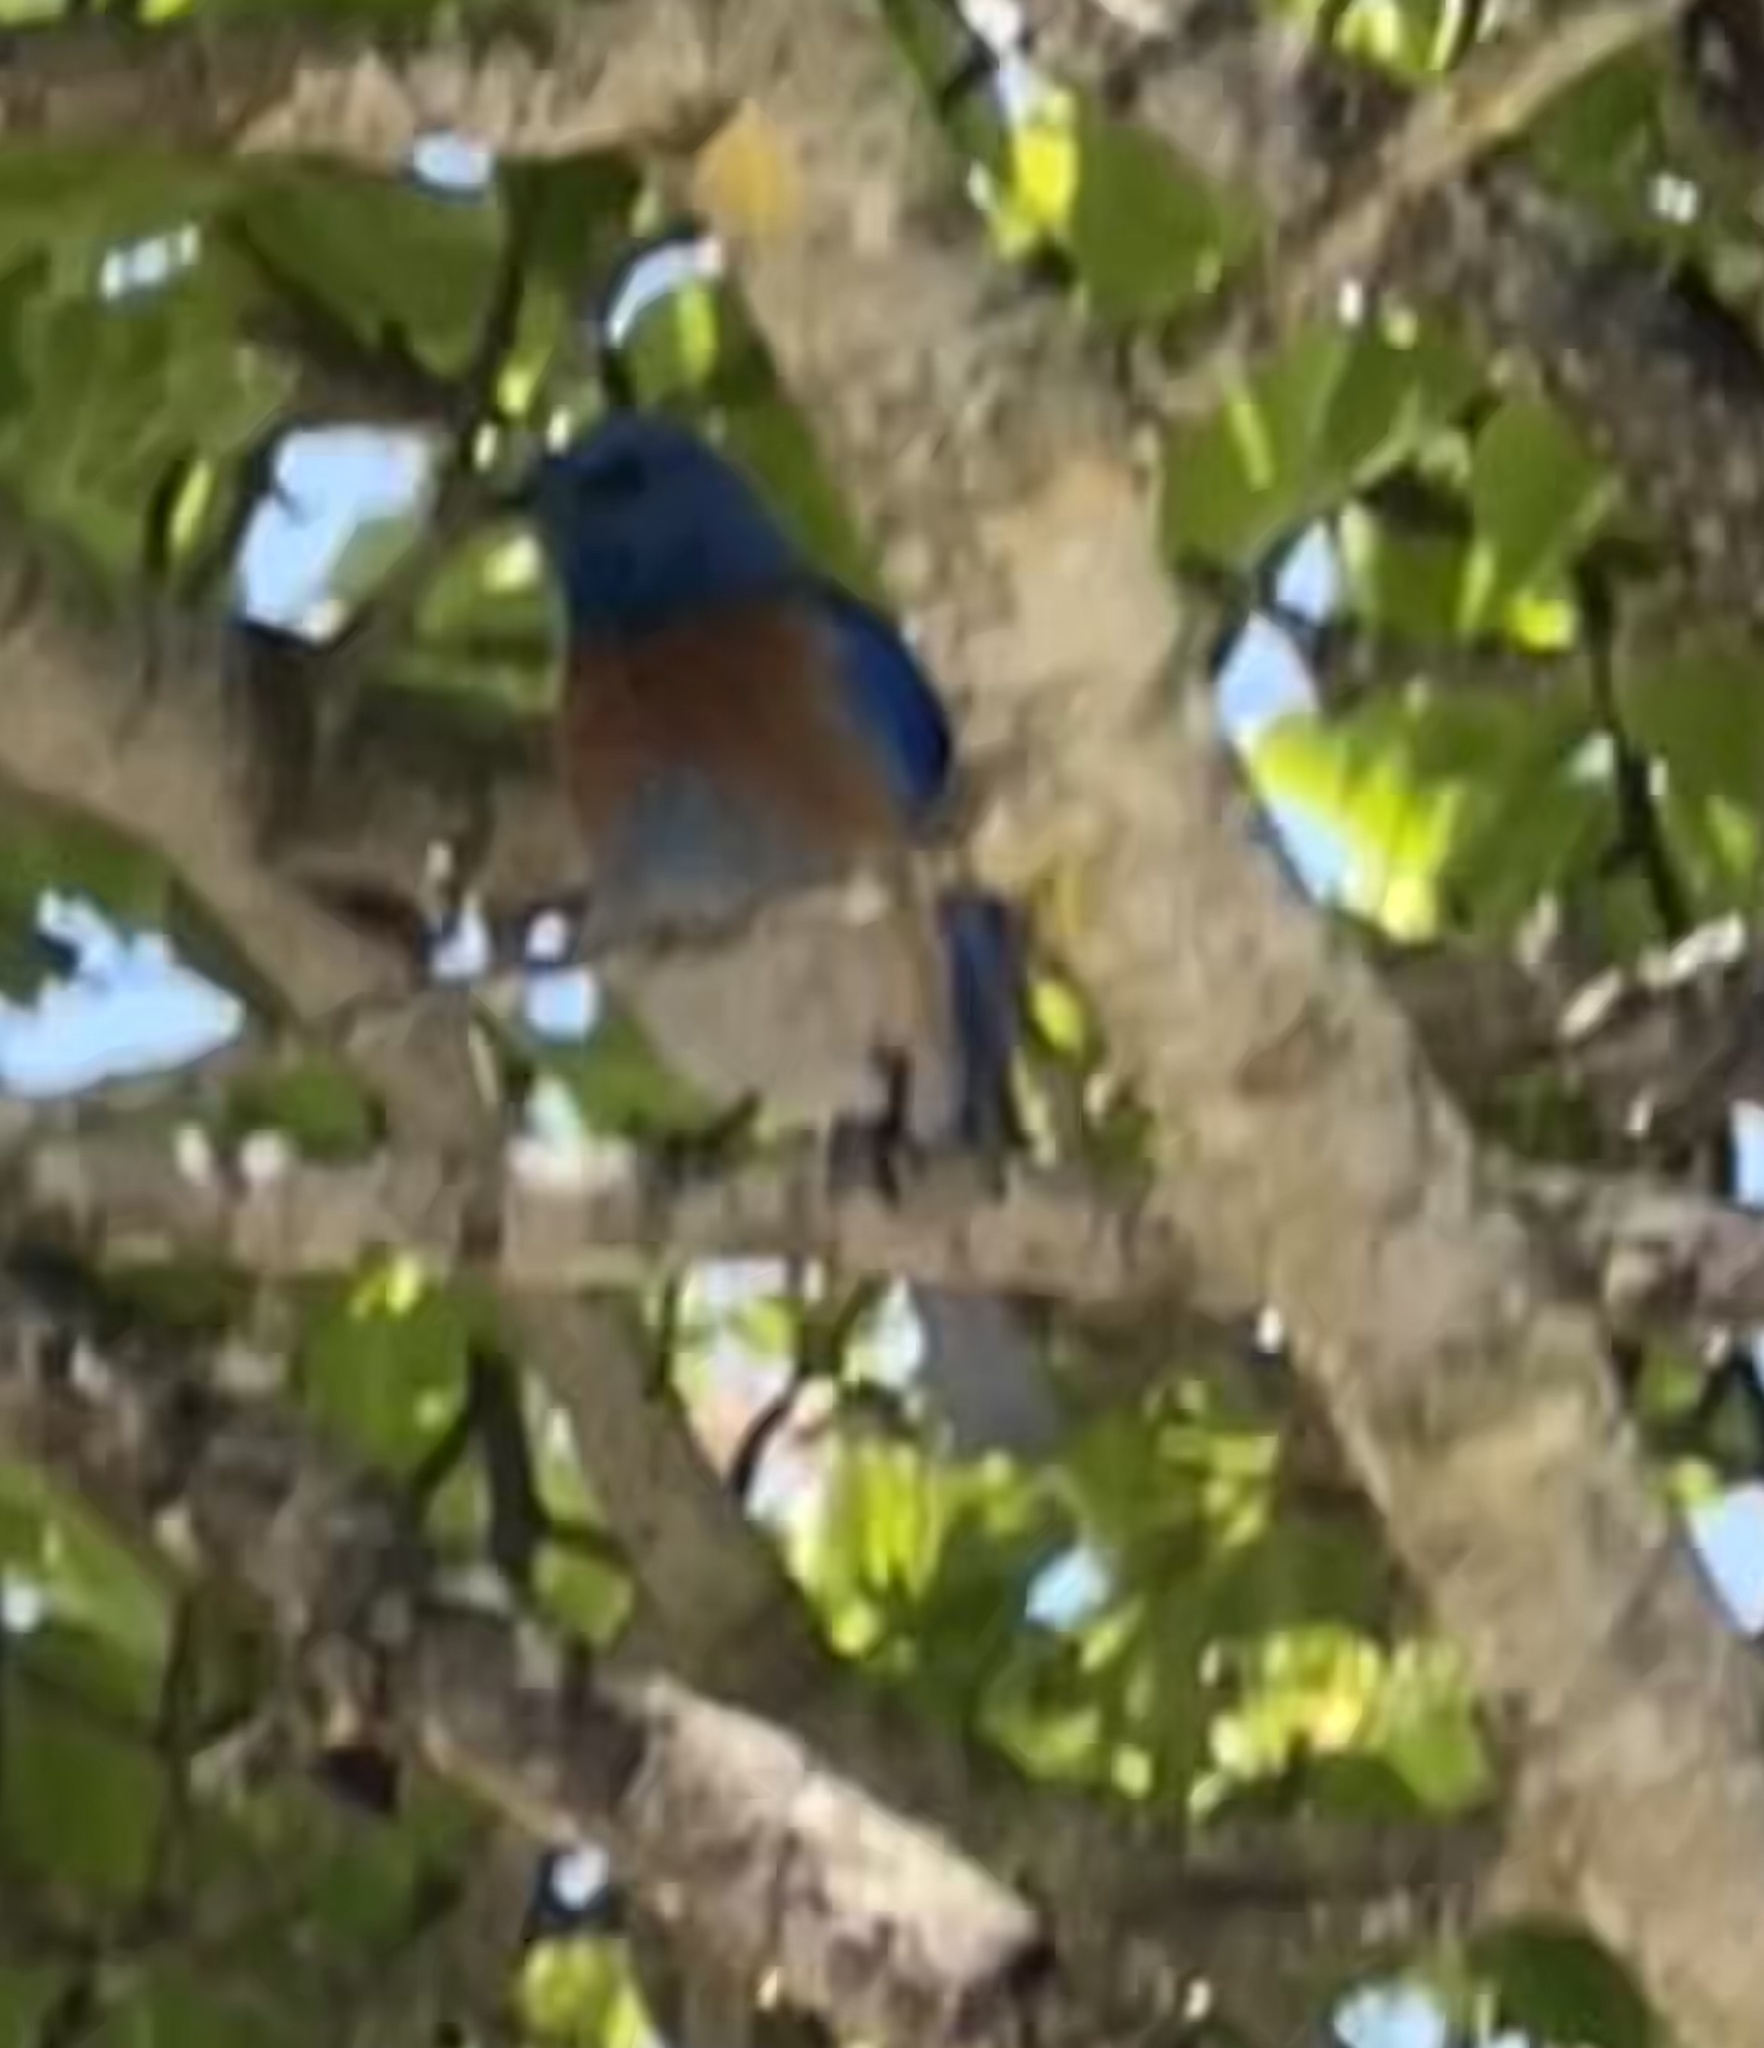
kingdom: Animalia
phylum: Chordata
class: Aves
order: Passeriformes
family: Turdidae
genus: Sialia
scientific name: Sialia mexicana
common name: Western bluebird
